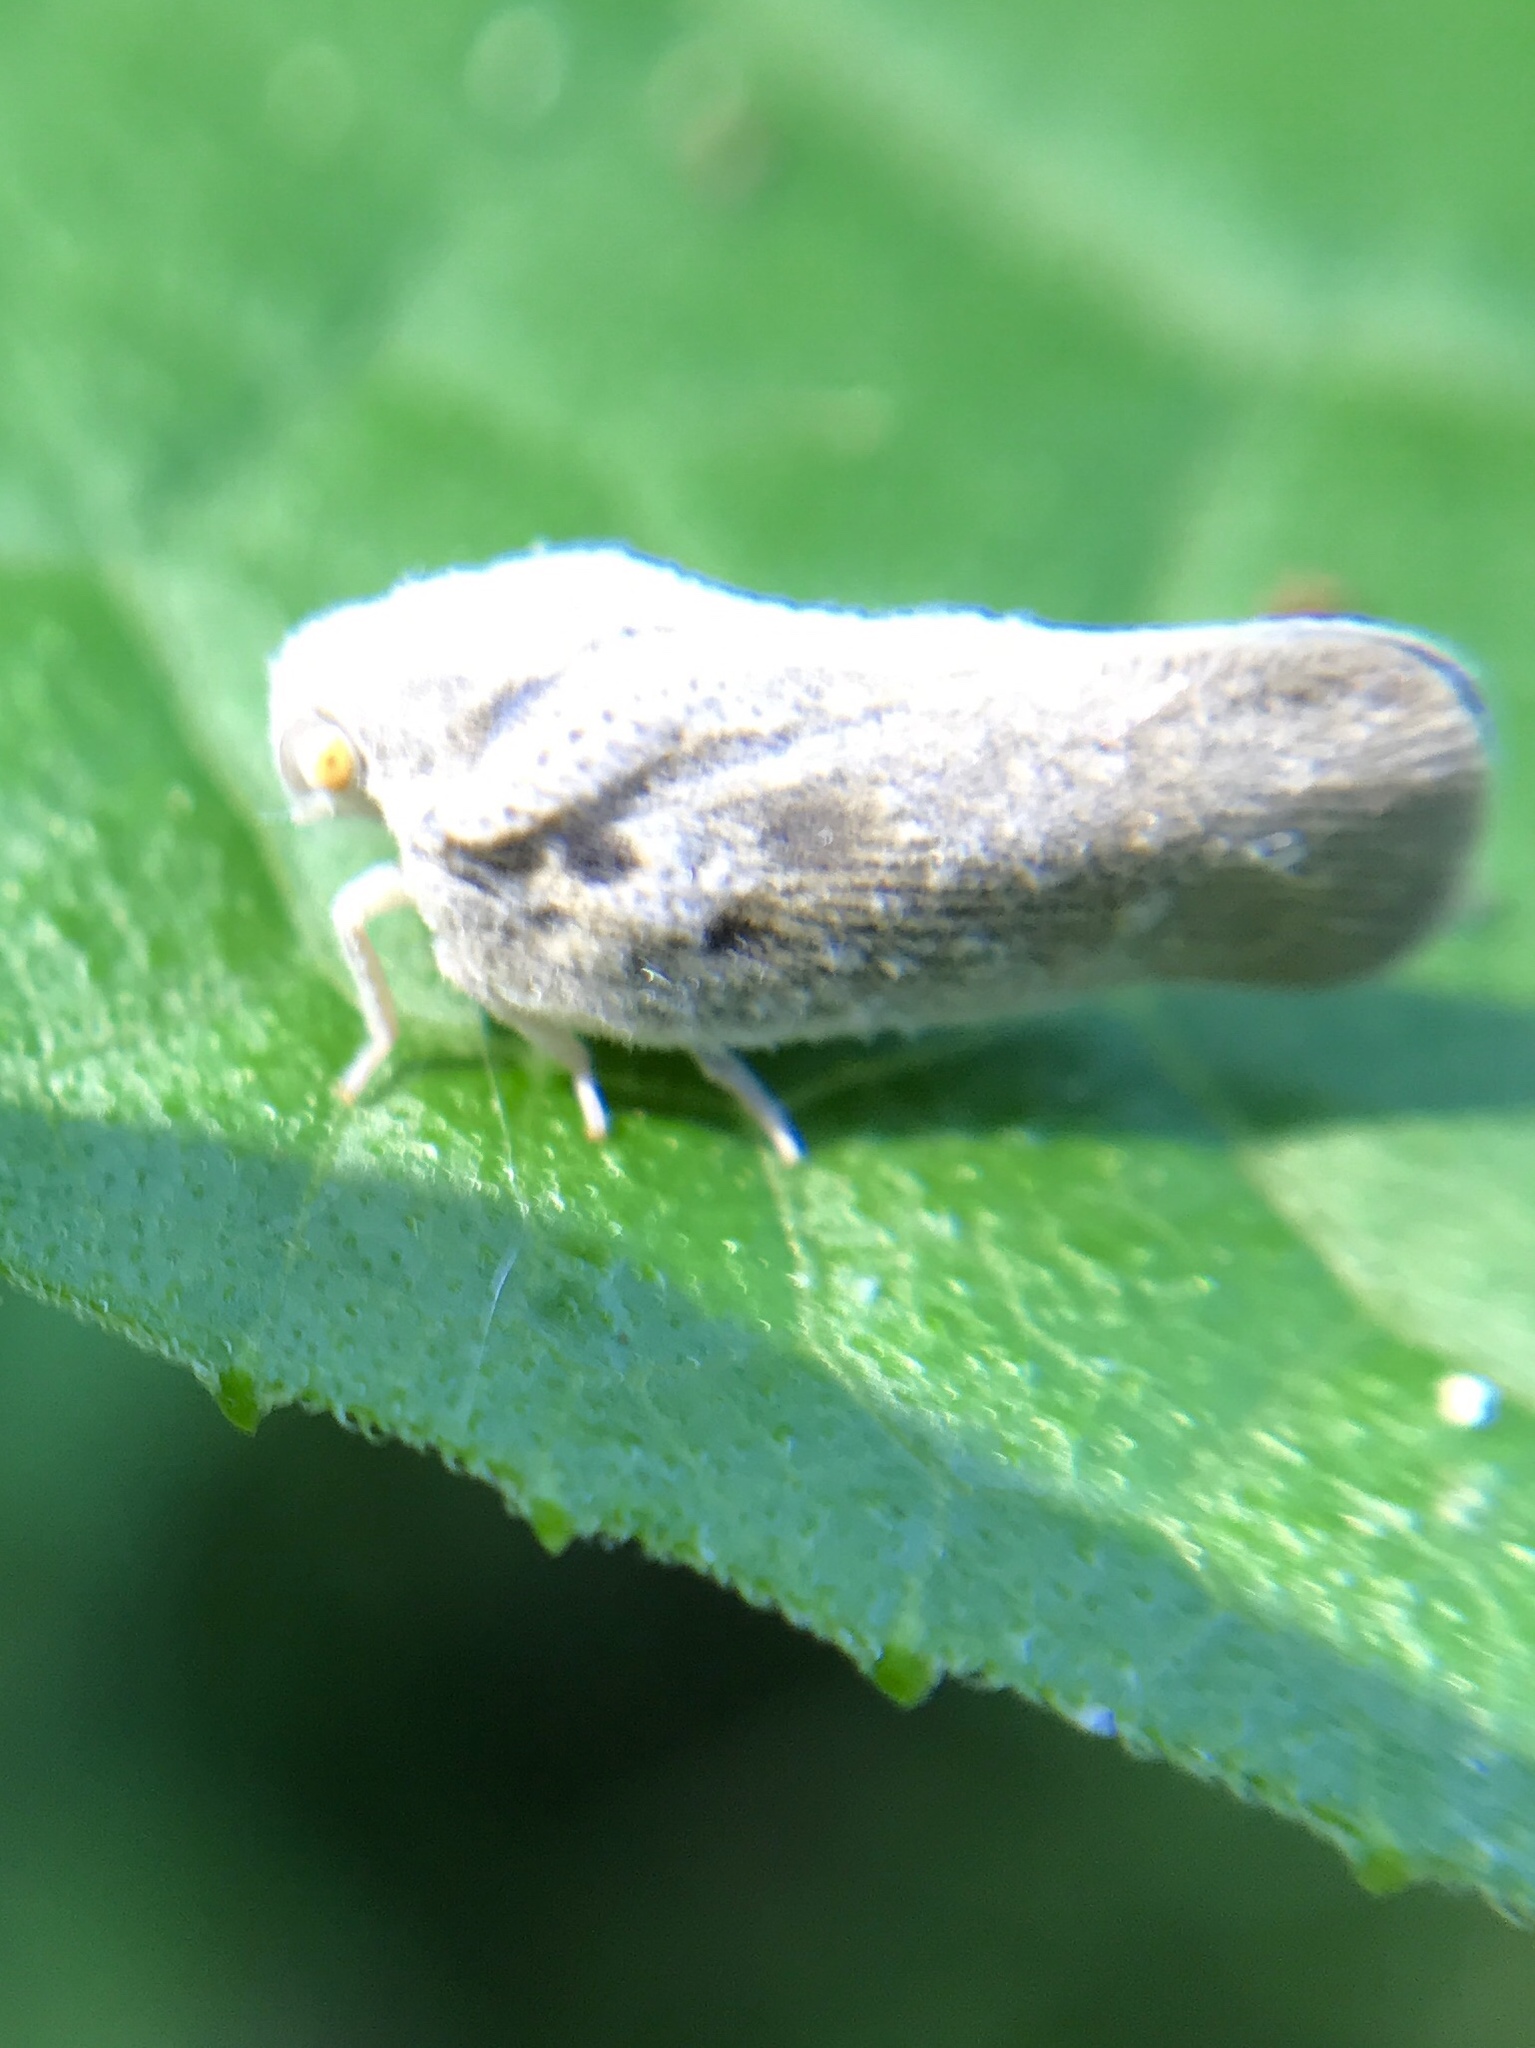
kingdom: Animalia
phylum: Arthropoda
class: Insecta
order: Hemiptera
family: Flatidae
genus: Metcalfa
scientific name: Metcalfa pruinosa
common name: Citrus flatid planthopper
